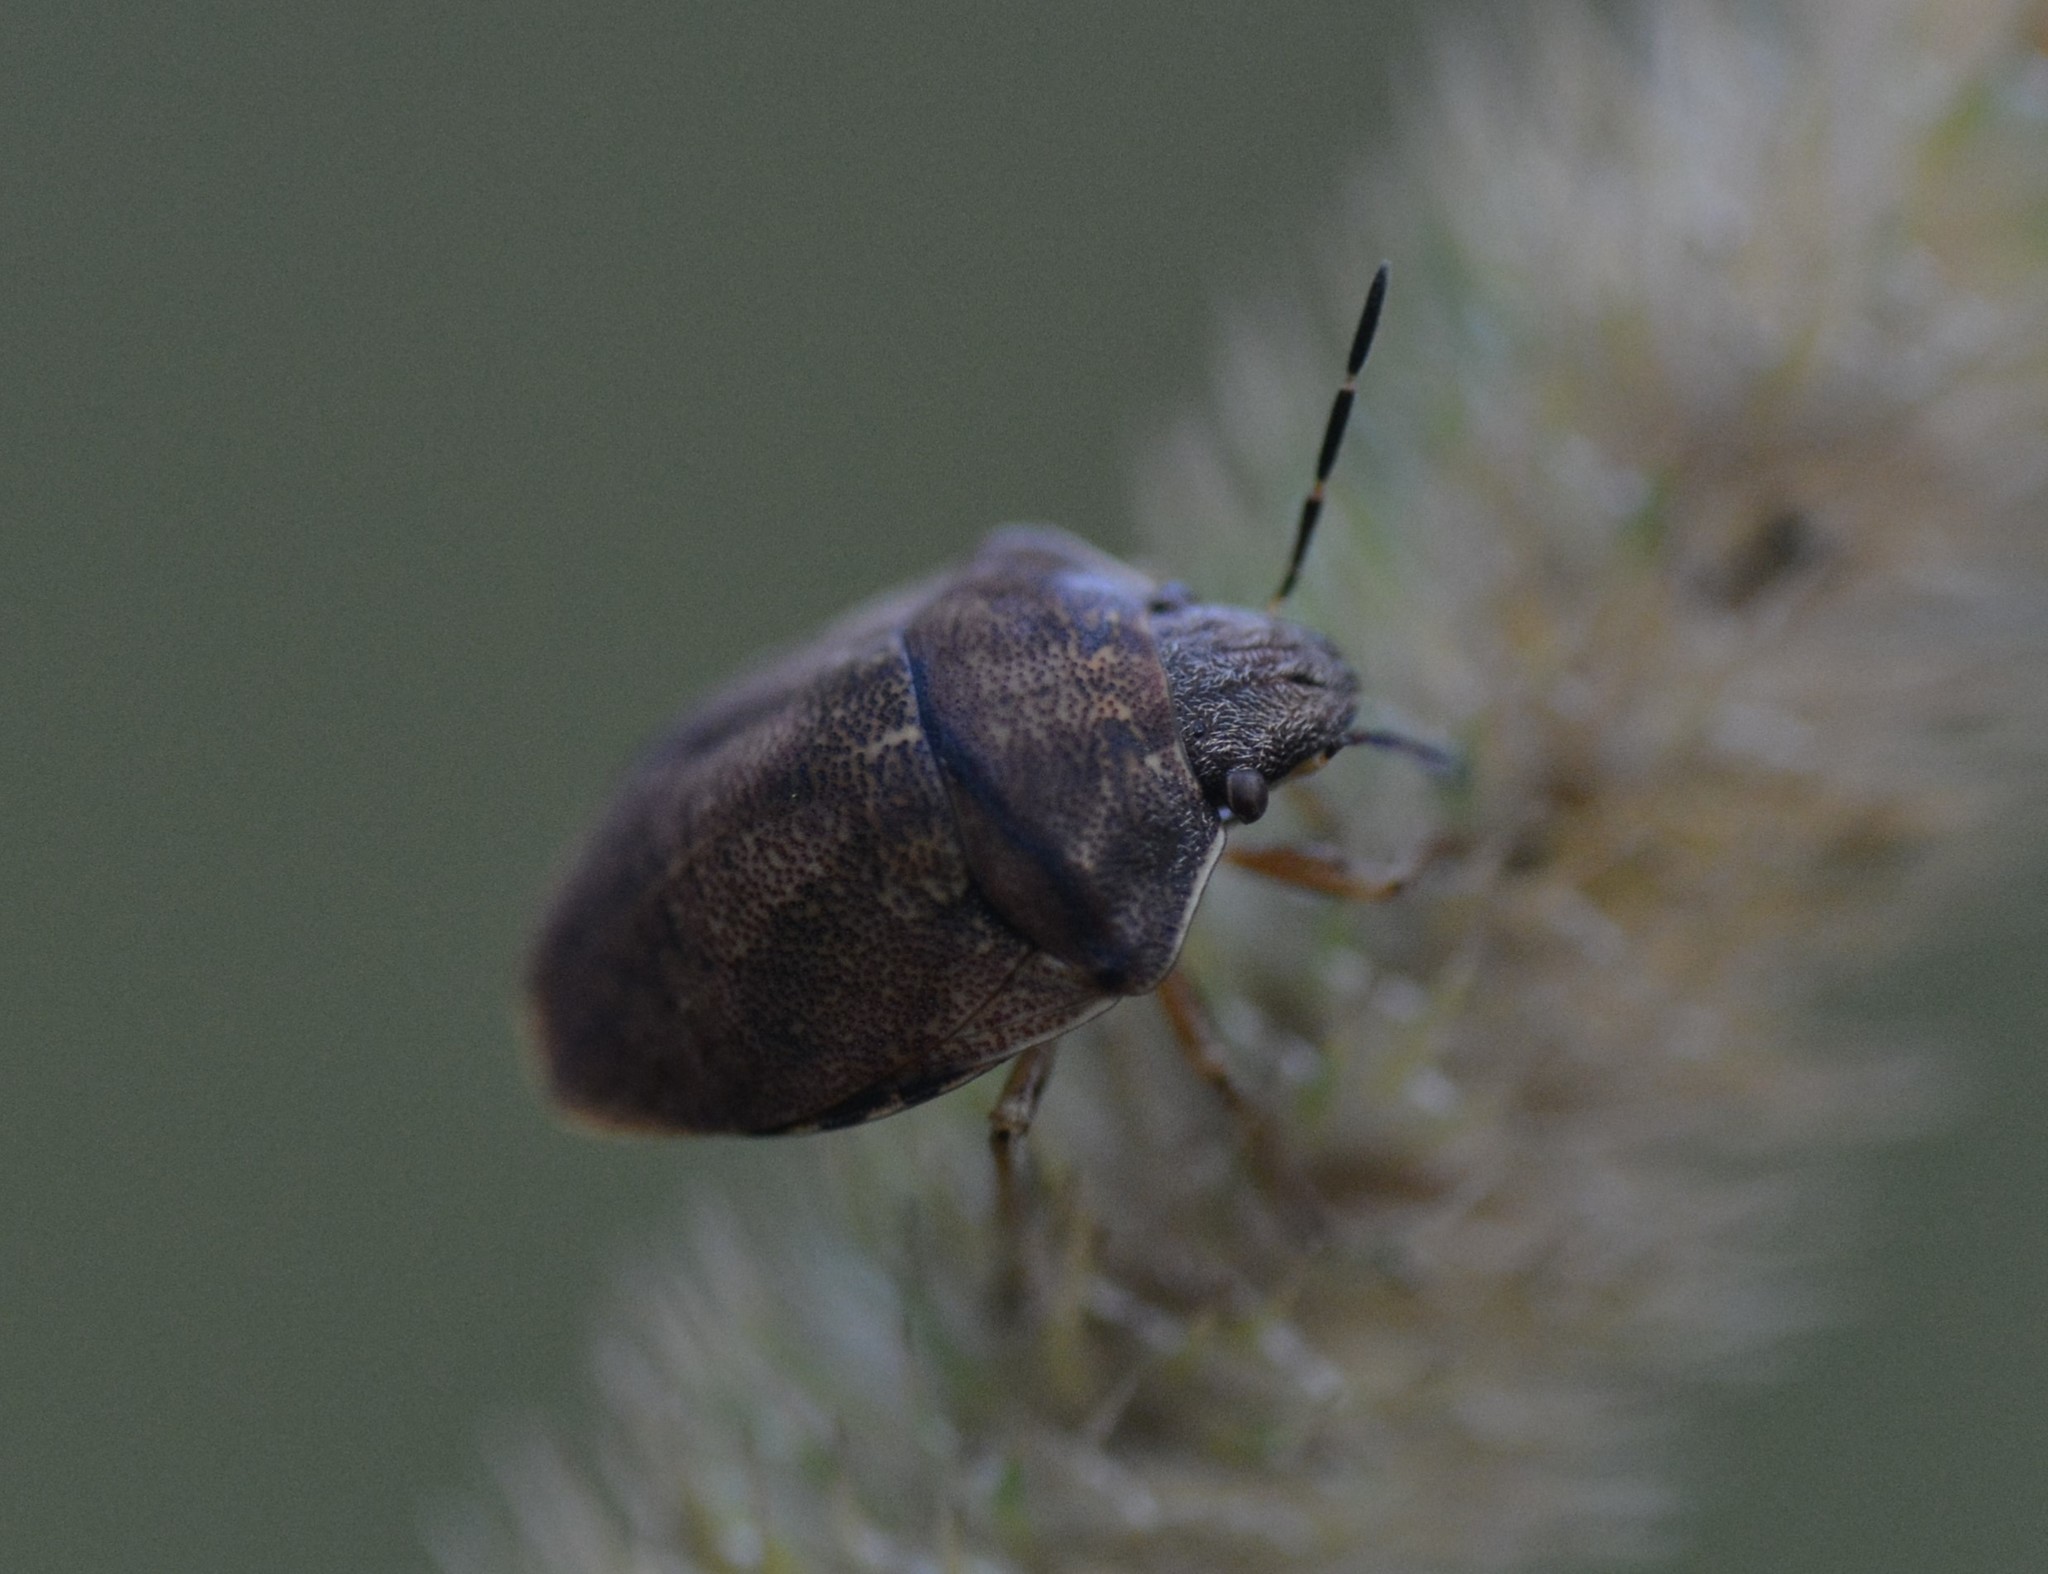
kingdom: Animalia
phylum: Arthropoda
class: Insecta
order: Hemiptera
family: Scutelleridae
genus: Homaemus
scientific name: Homaemus aeneifrons
